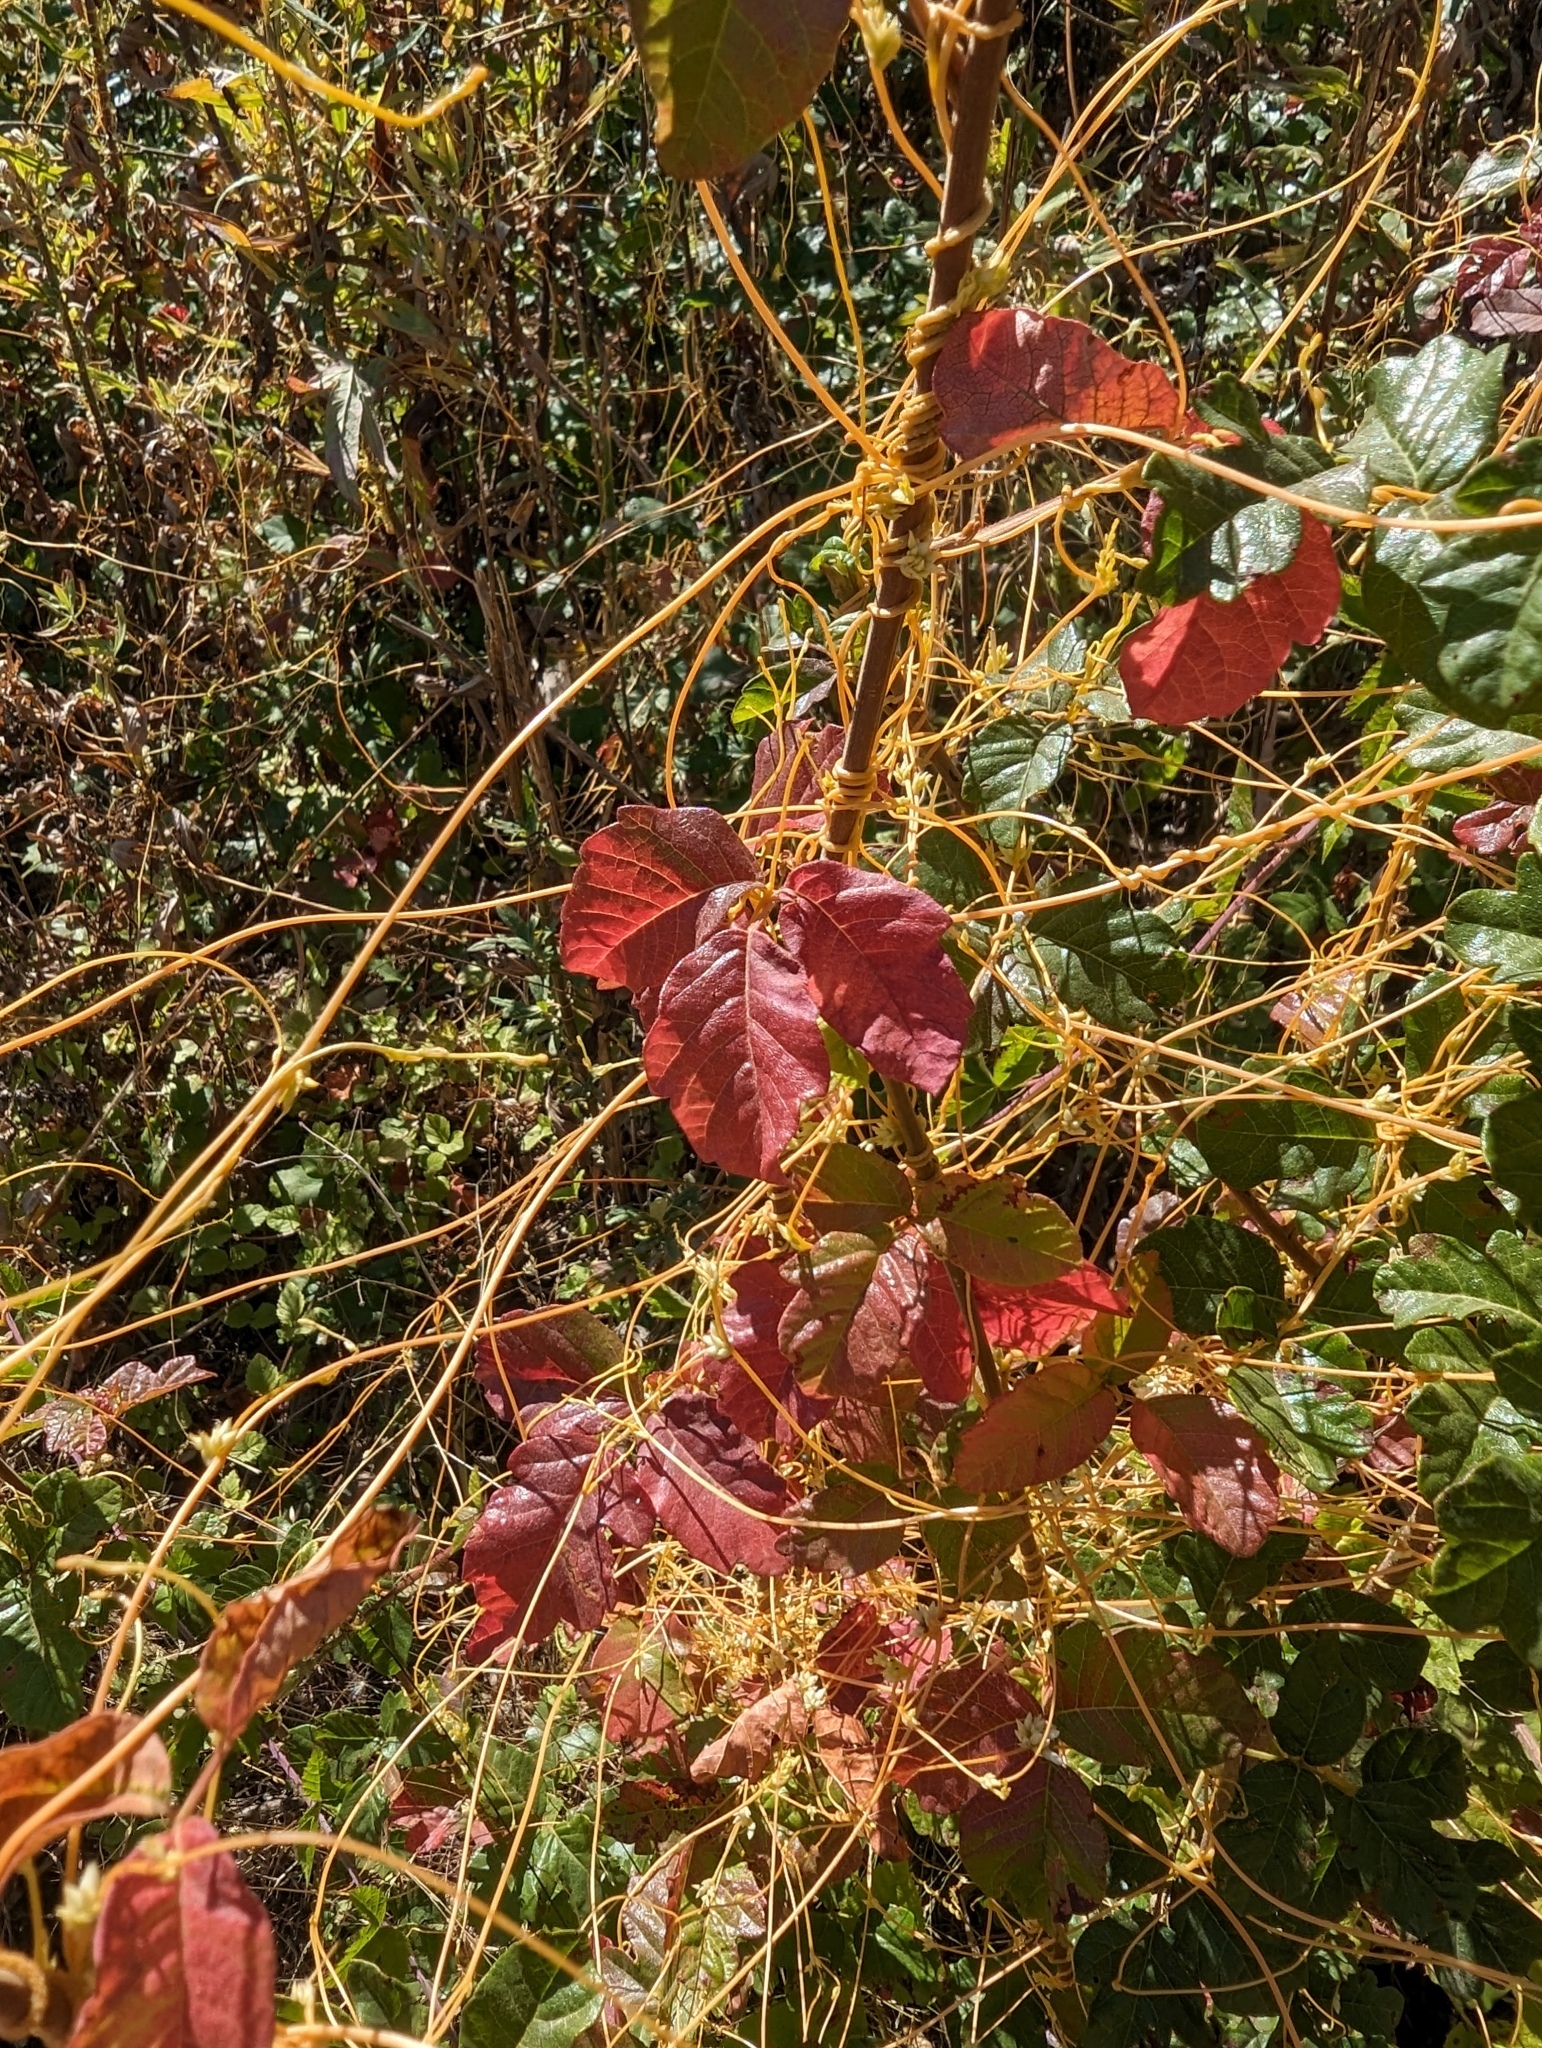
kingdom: Plantae
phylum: Tracheophyta
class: Magnoliopsida
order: Sapindales
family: Anacardiaceae
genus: Toxicodendron
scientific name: Toxicodendron diversilobum
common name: Pacific poison-oak
